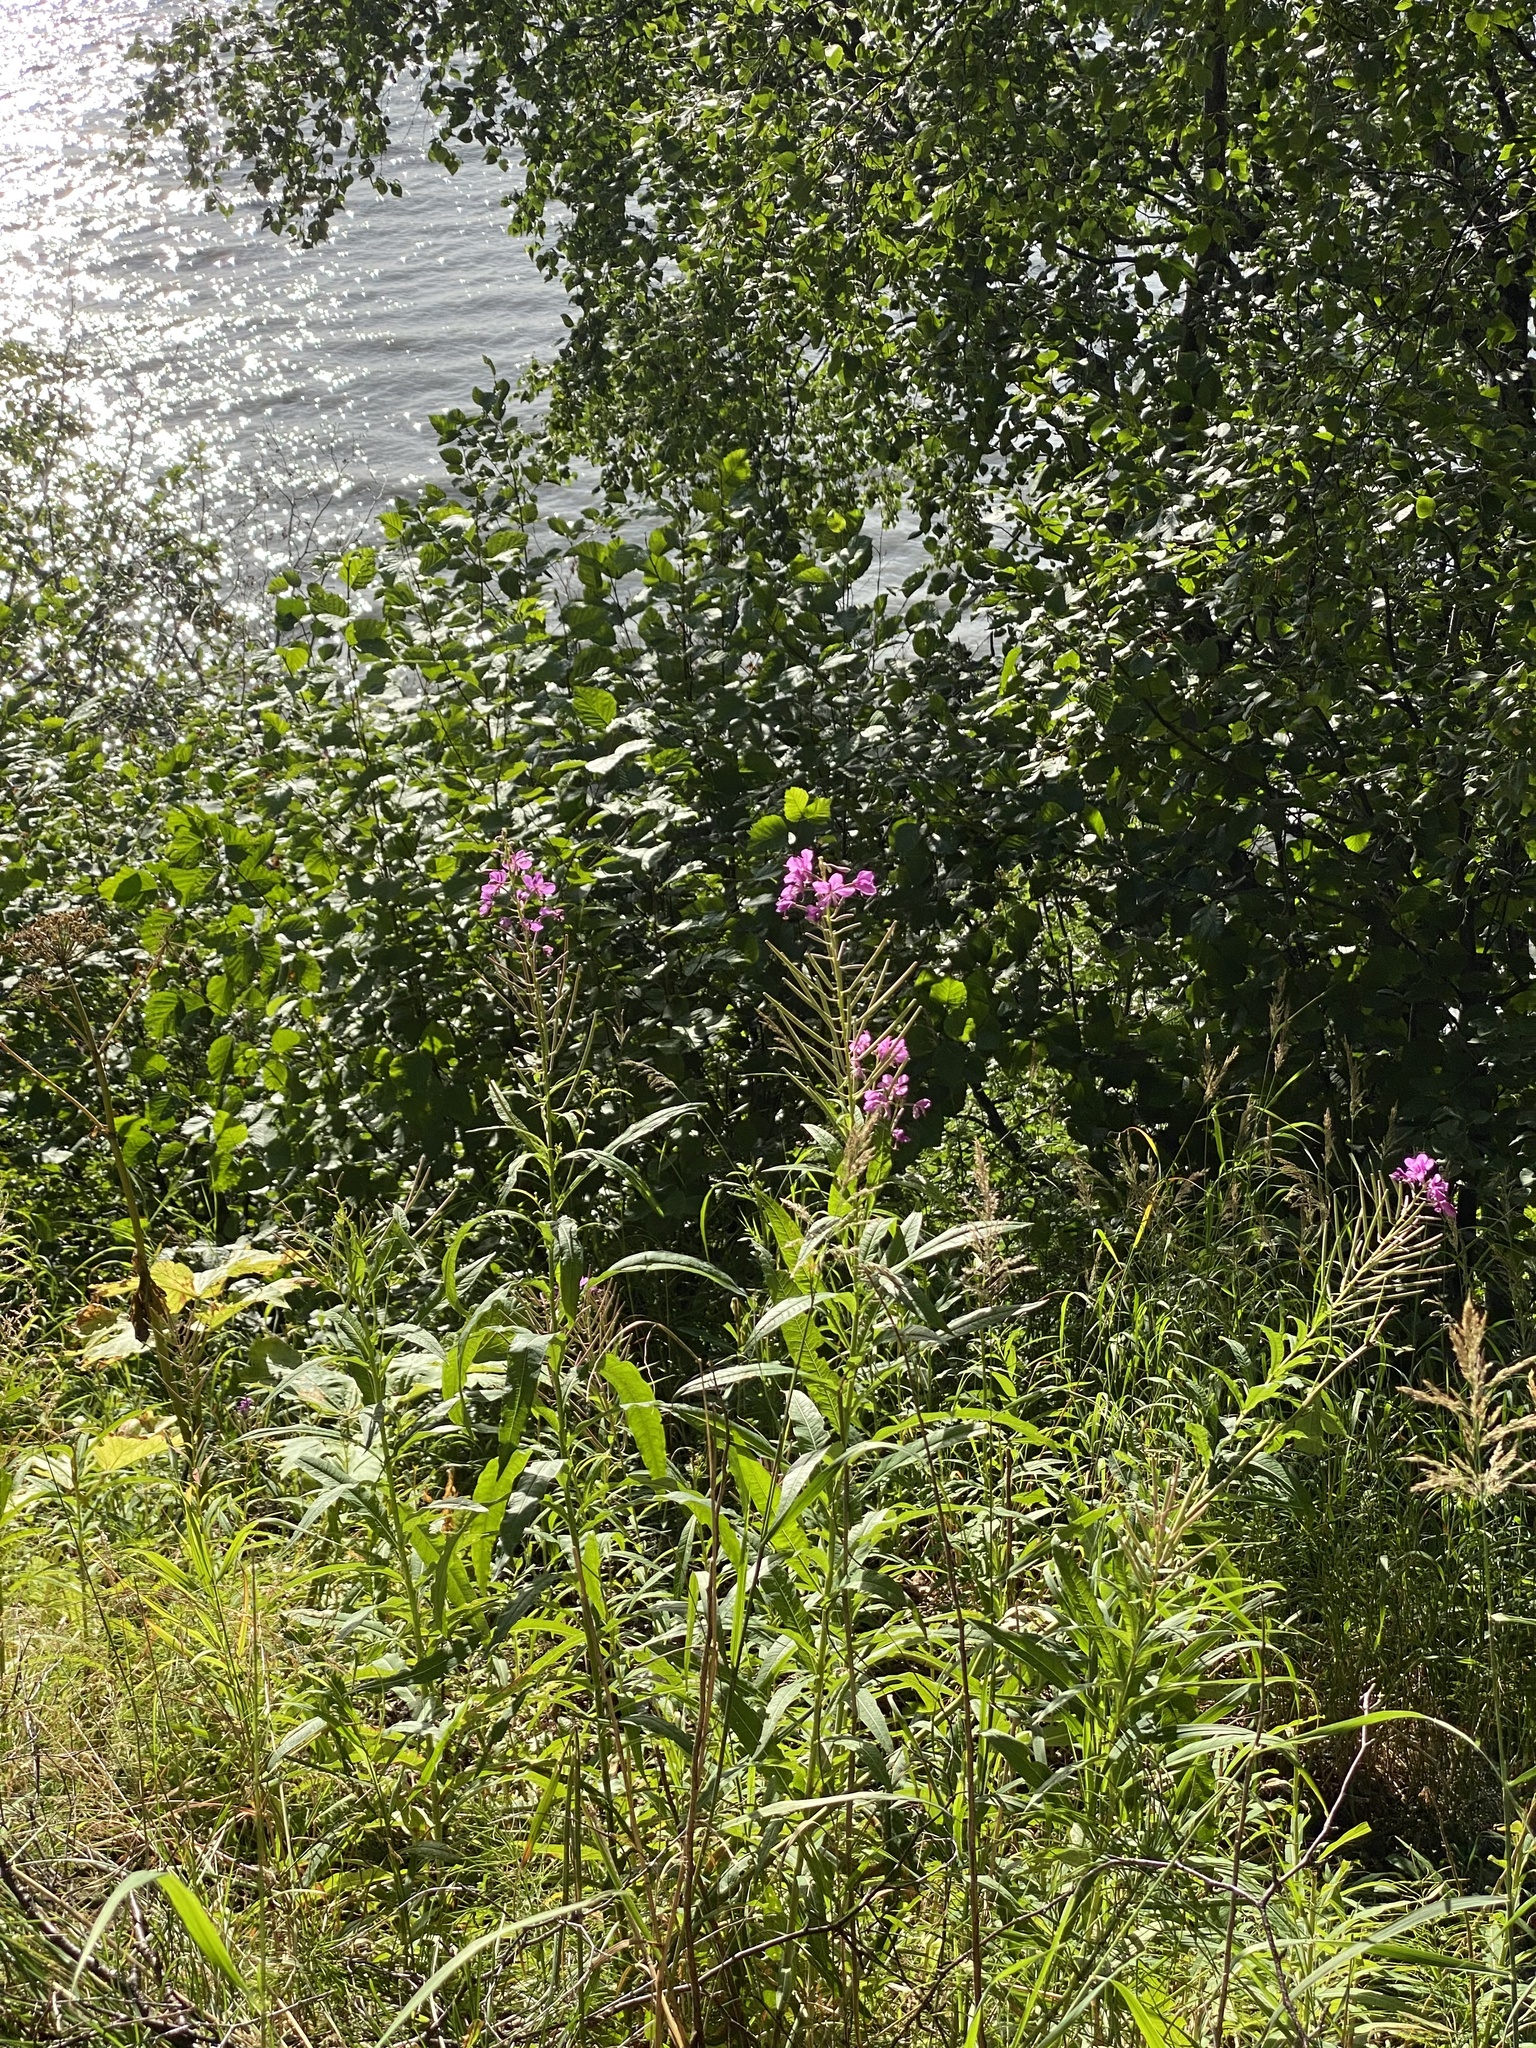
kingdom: Plantae
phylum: Tracheophyta
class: Magnoliopsida
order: Myrtales
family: Onagraceae
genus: Chamaenerion
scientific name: Chamaenerion angustifolium
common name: Fireweed
